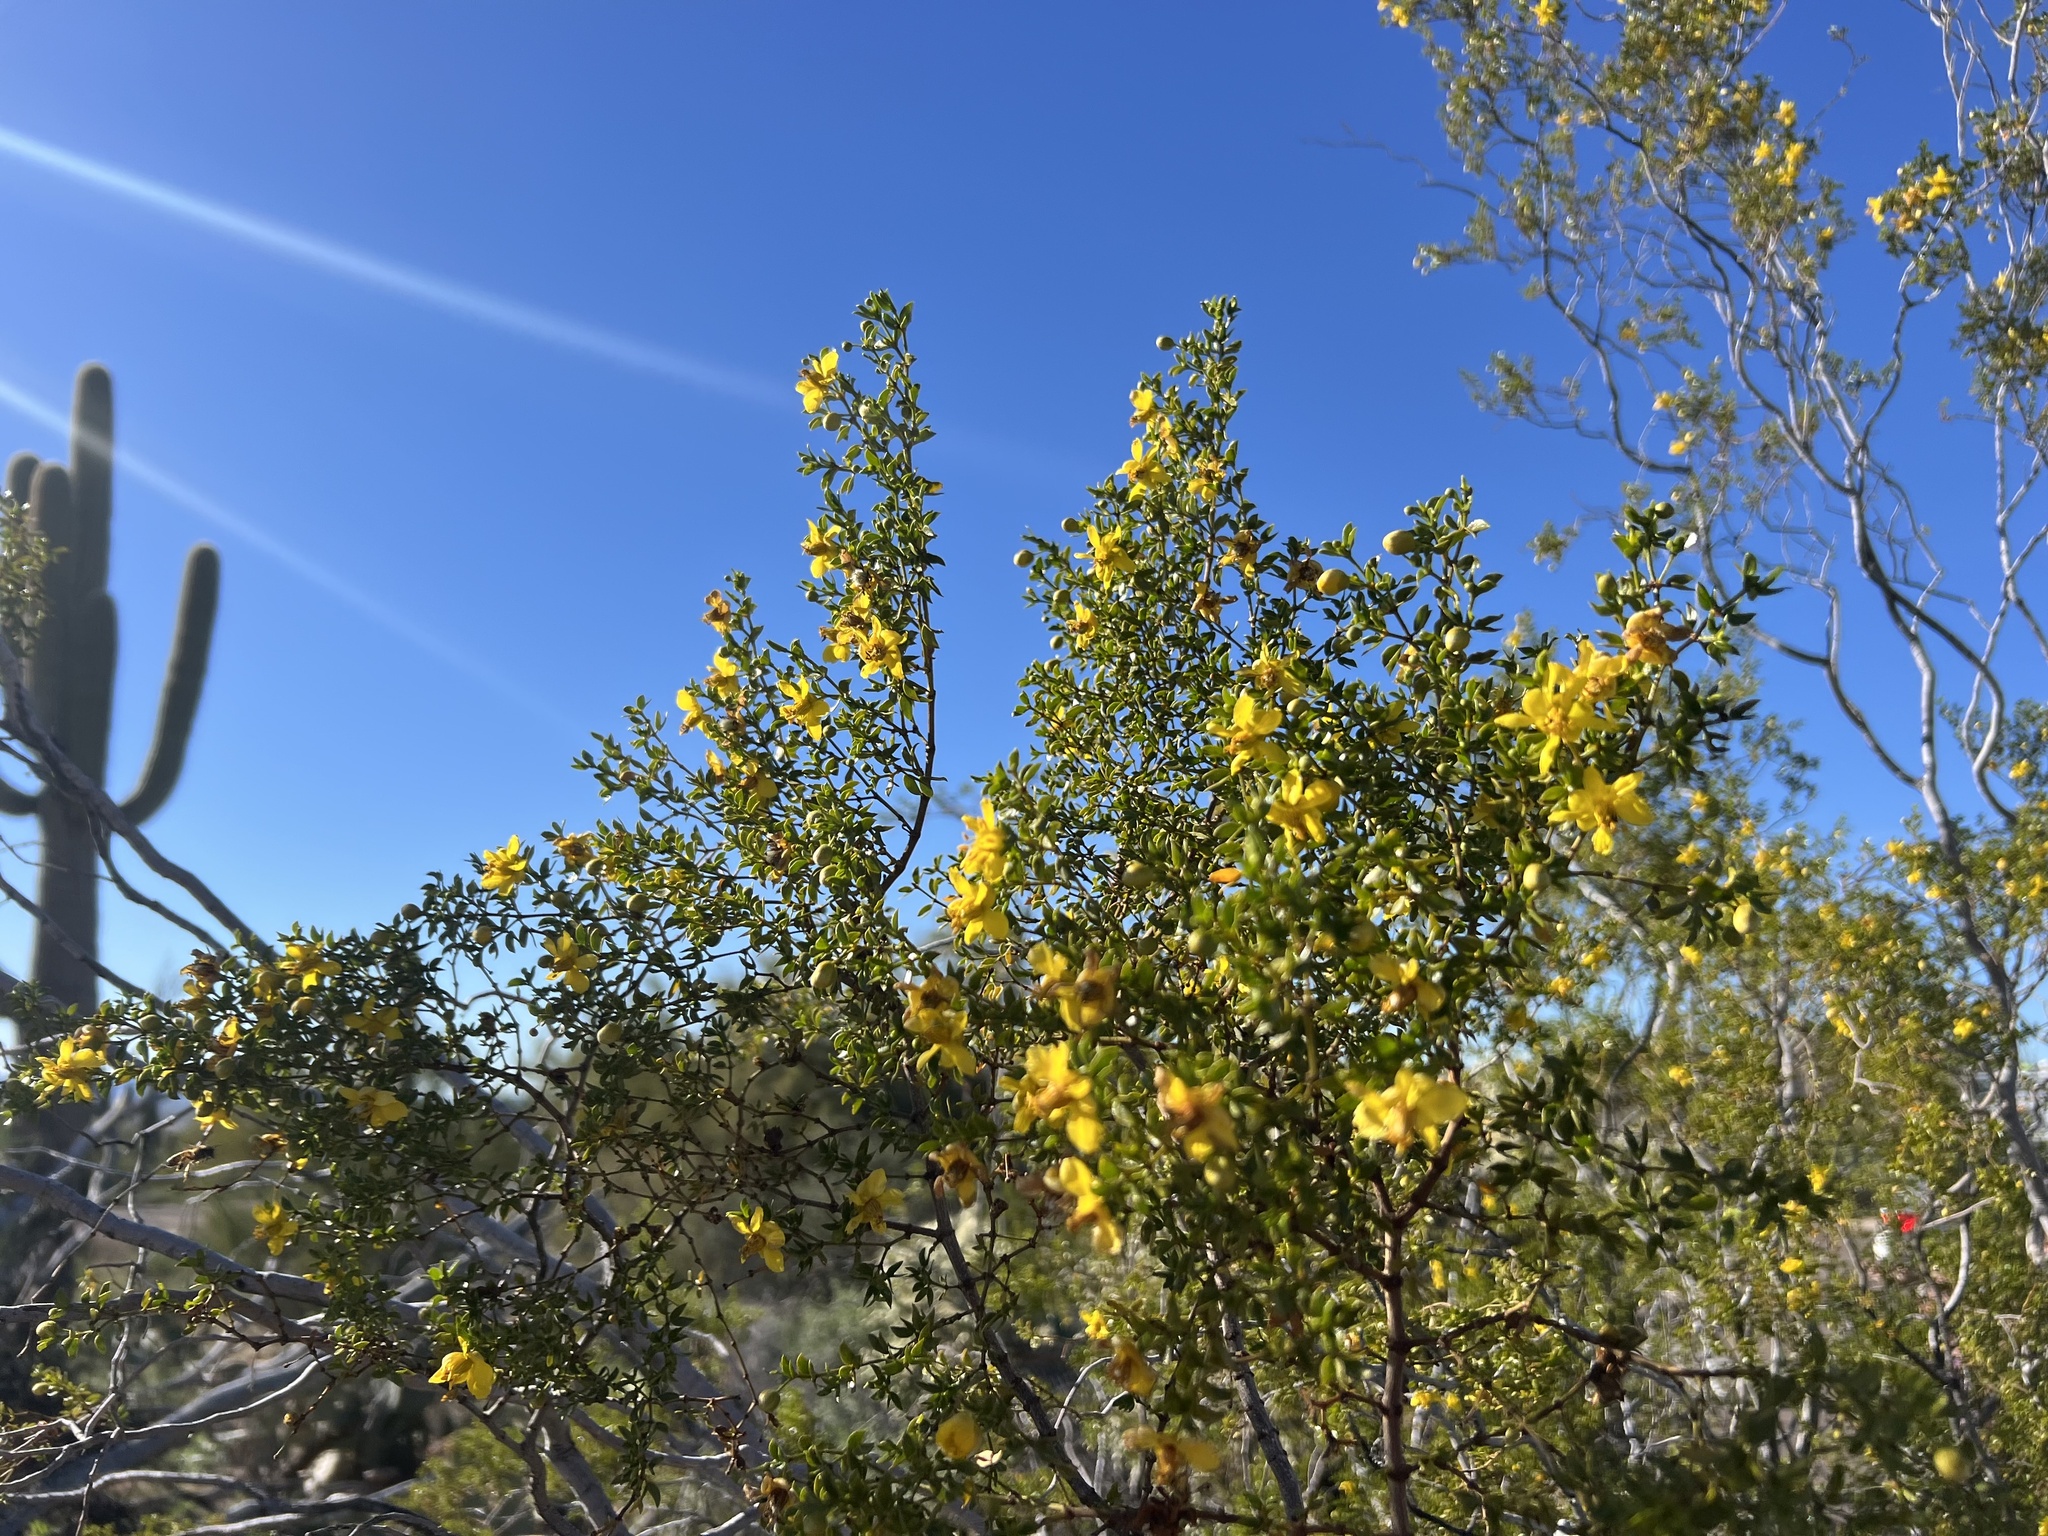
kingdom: Plantae
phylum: Tracheophyta
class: Magnoliopsida
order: Zygophyllales
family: Zygophyllaceae
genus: Larrea
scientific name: Larrea tridentata
